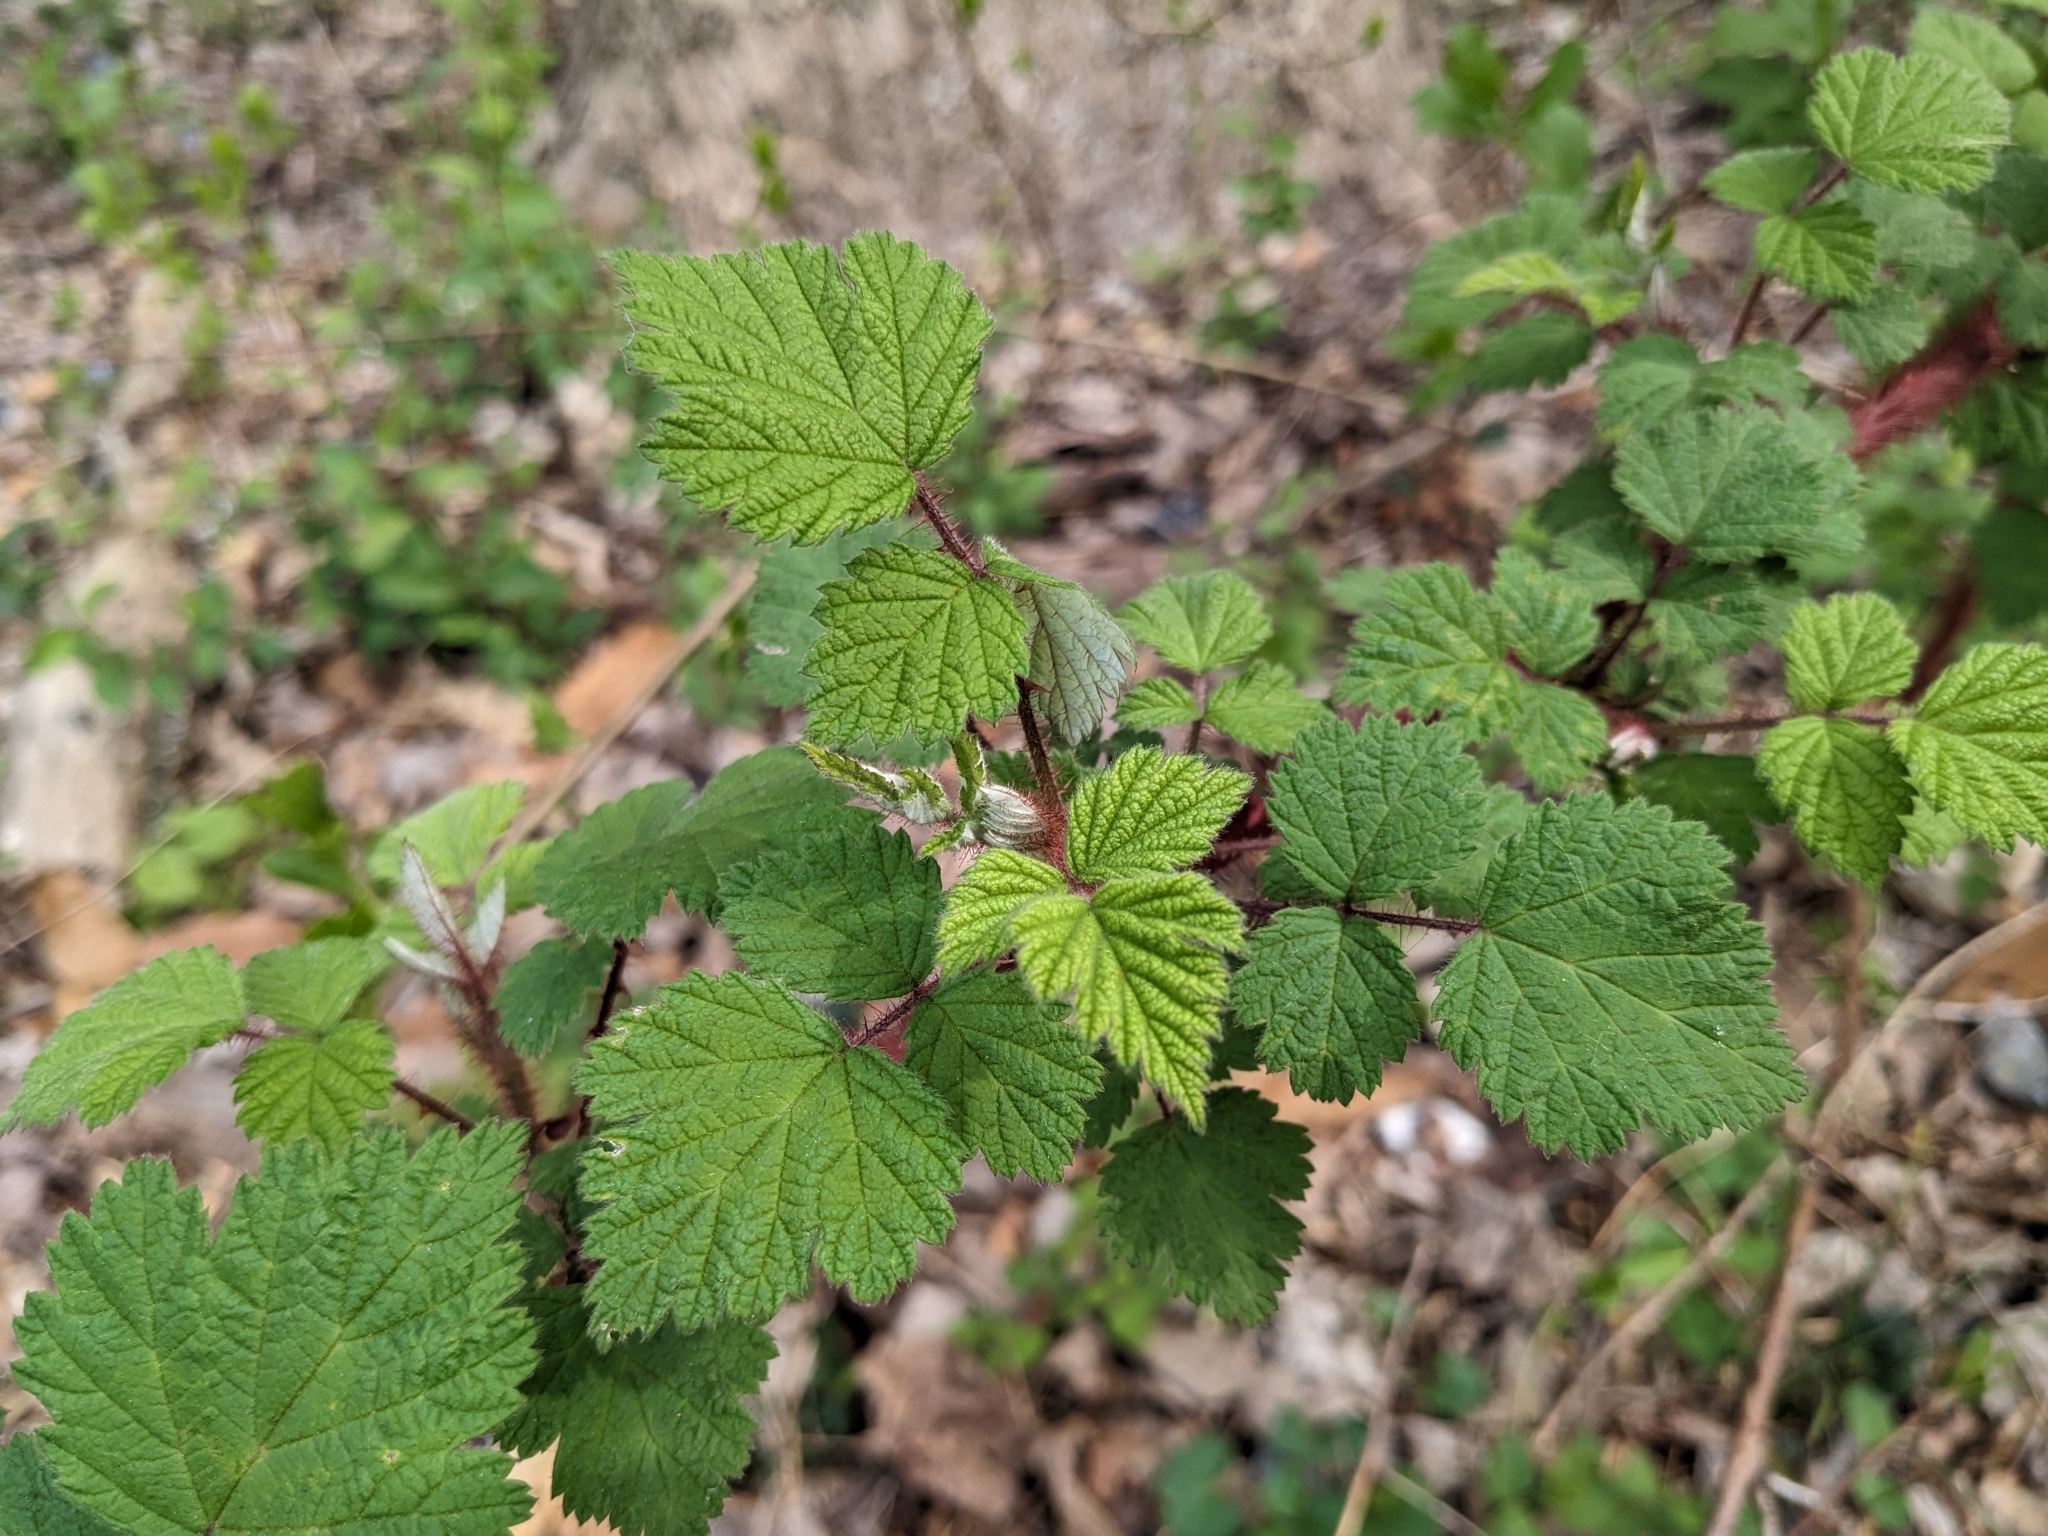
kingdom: Plantae
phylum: Tracheophyta
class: Magnoliopsida
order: Rosales
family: Rosaceae
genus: Rubus
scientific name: Rubus phoenicolasius
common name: Japanese wineberry
